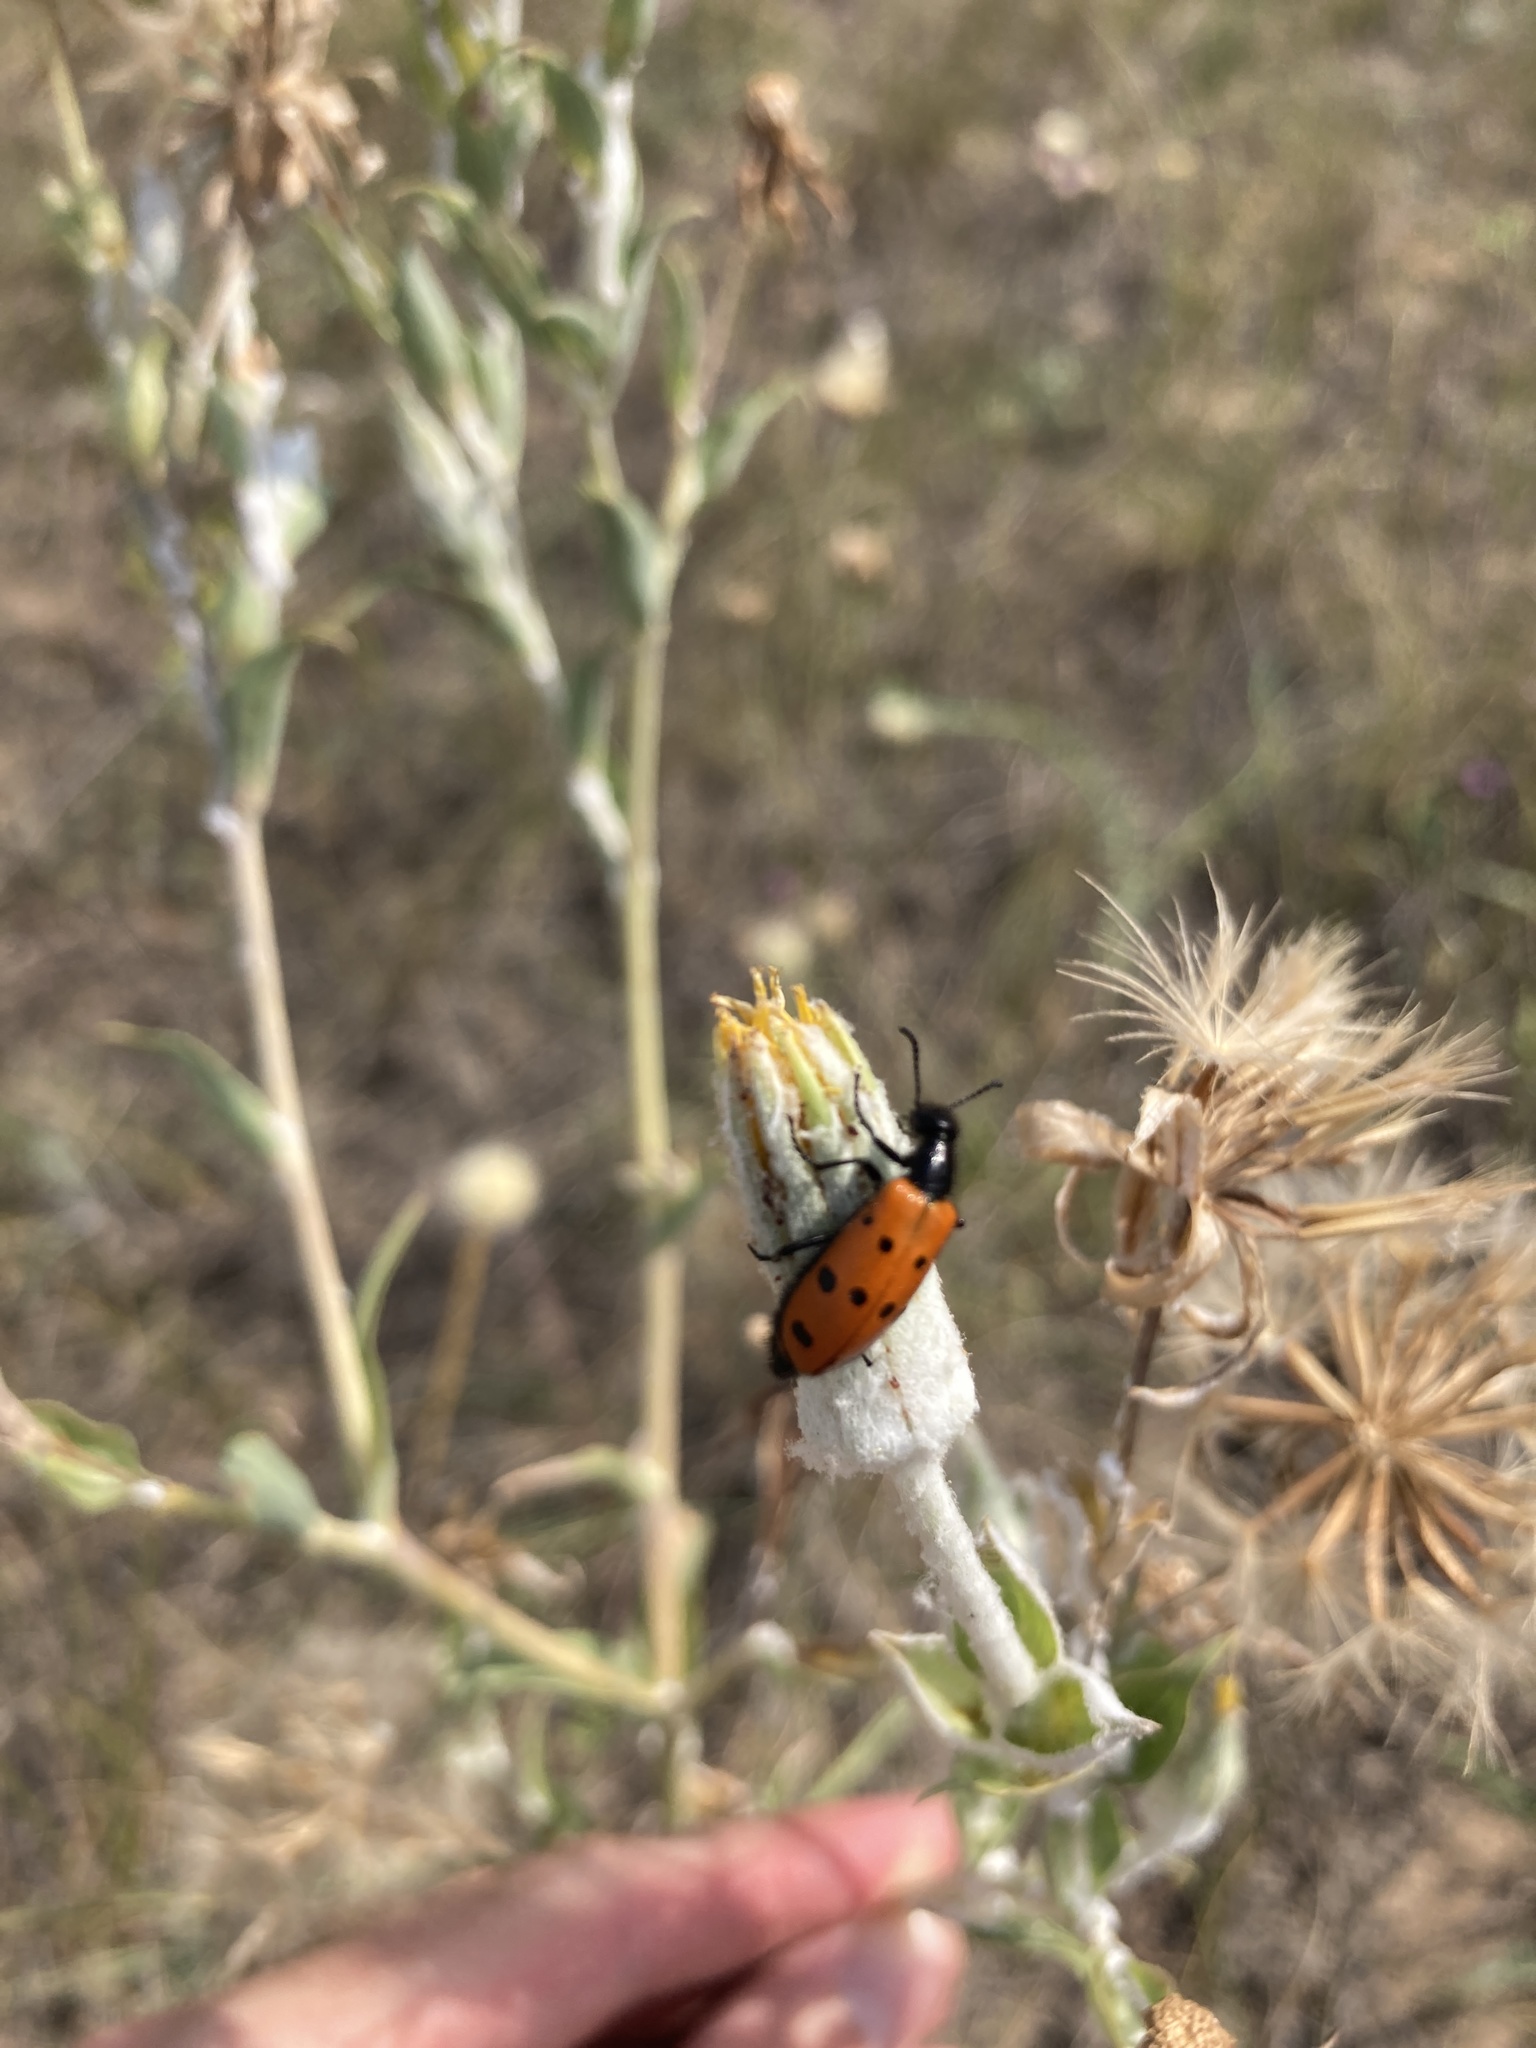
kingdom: Animalia
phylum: Arthropoda
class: Insecta
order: Coleoptera
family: Meloidae
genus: Mylabris
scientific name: Mylabris fabricii
